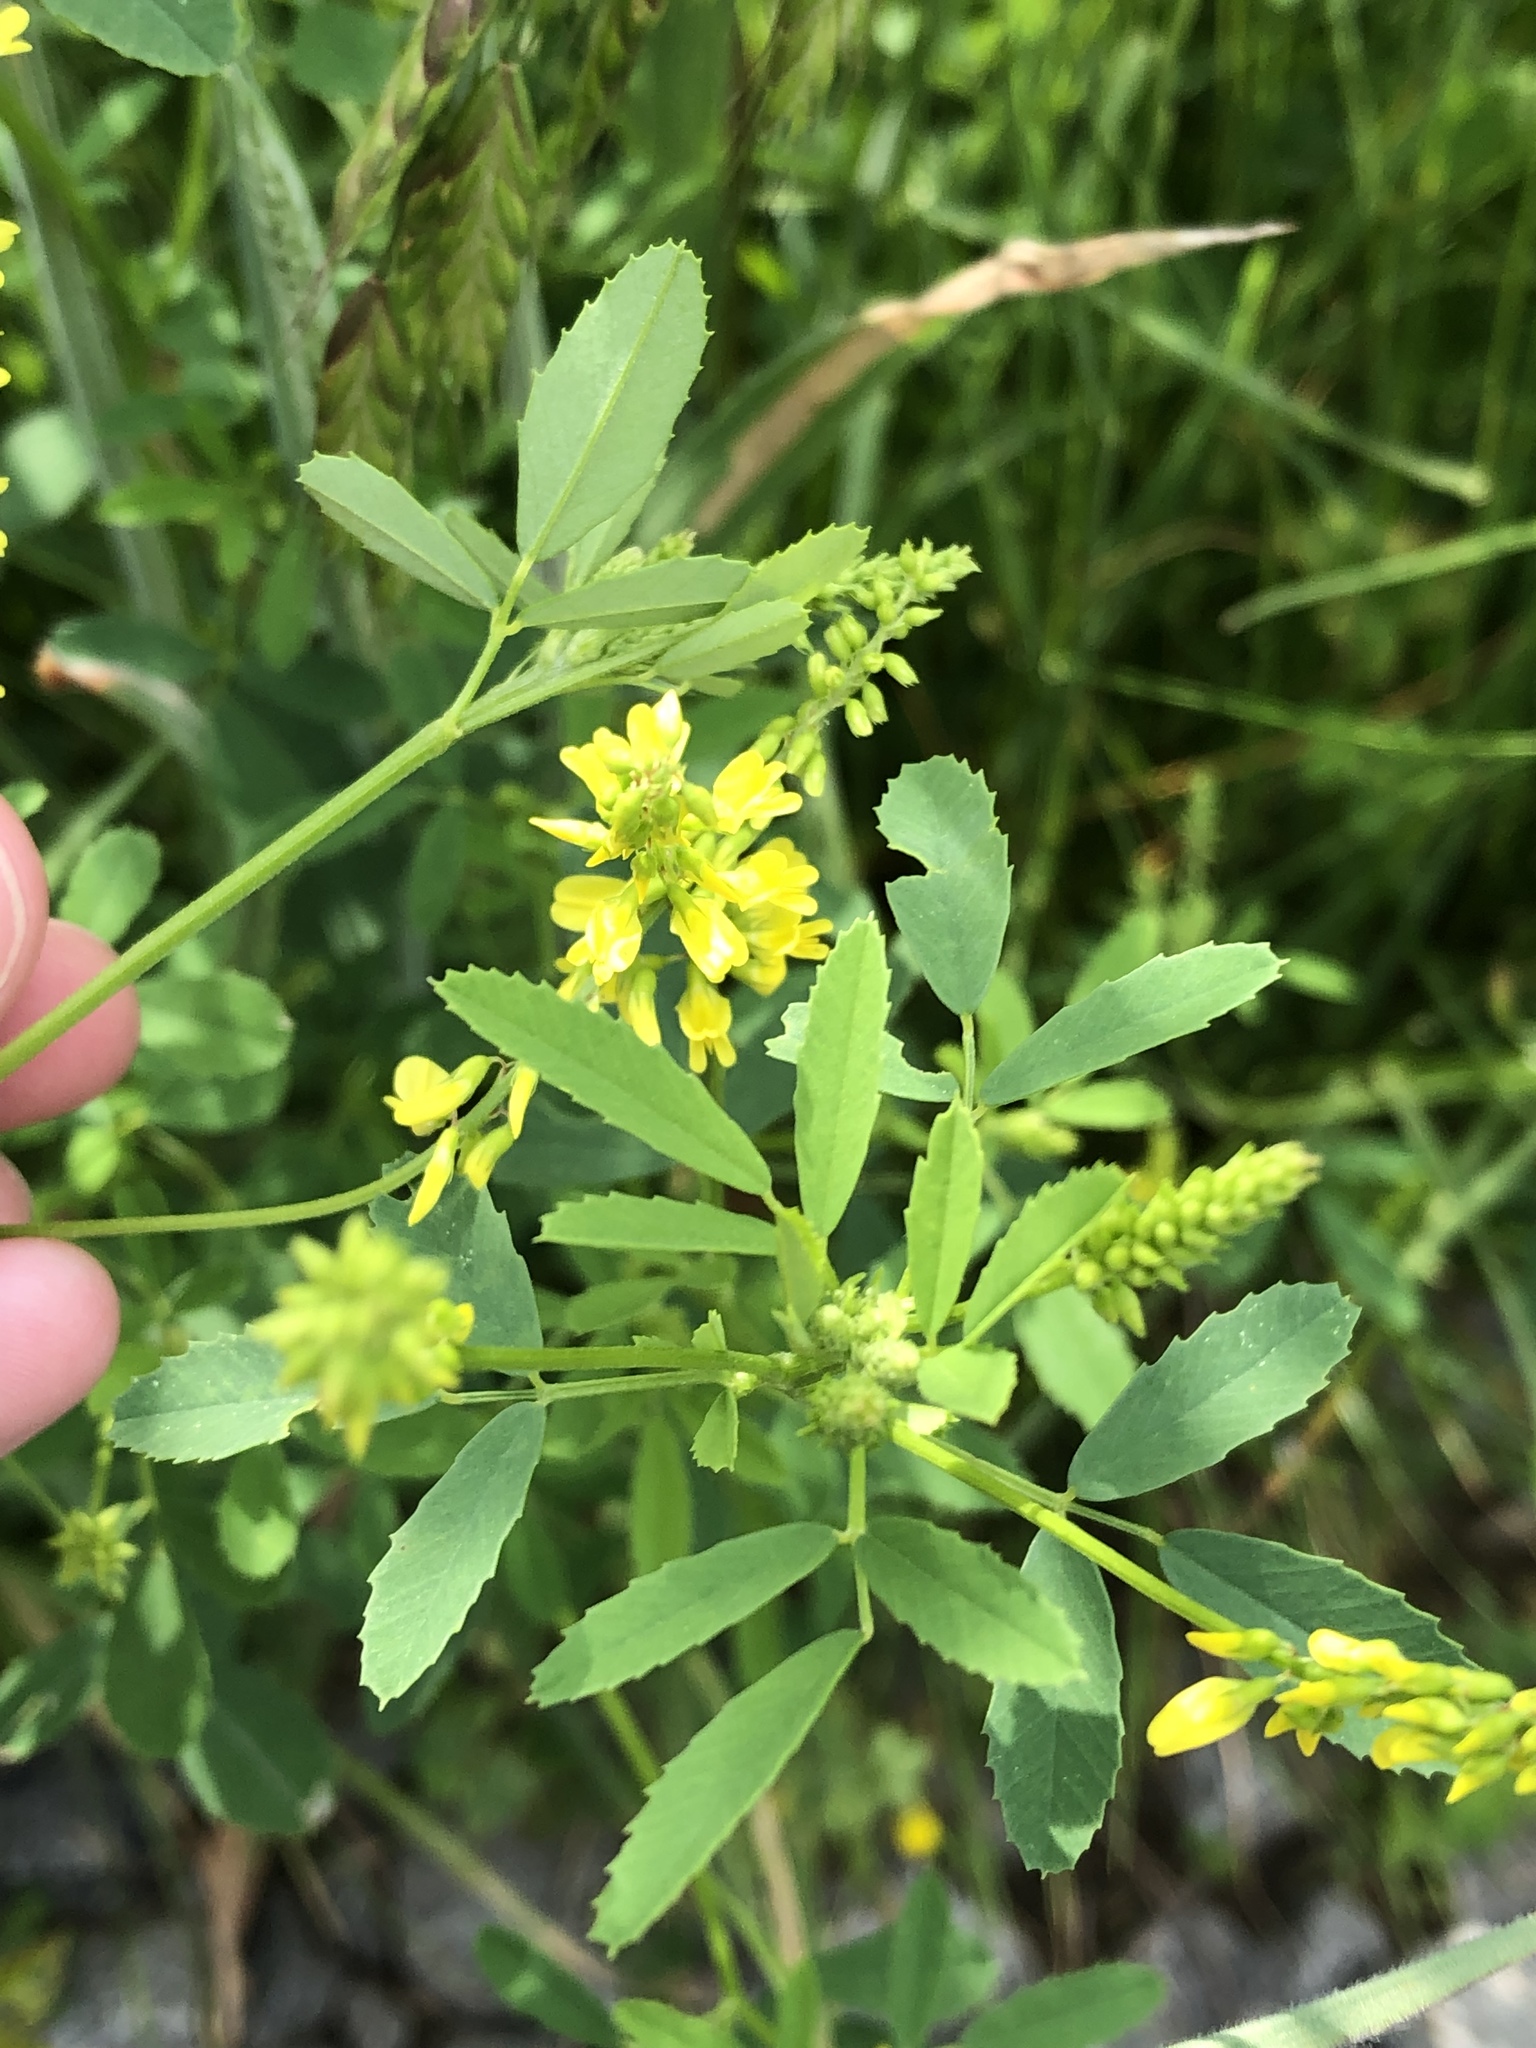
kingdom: Plantae
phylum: Tracheophyta
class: Magnoliopsida
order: Fabales
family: Fabaceae
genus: Melilotus
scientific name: Melilotus officinalis
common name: Sweetclover
